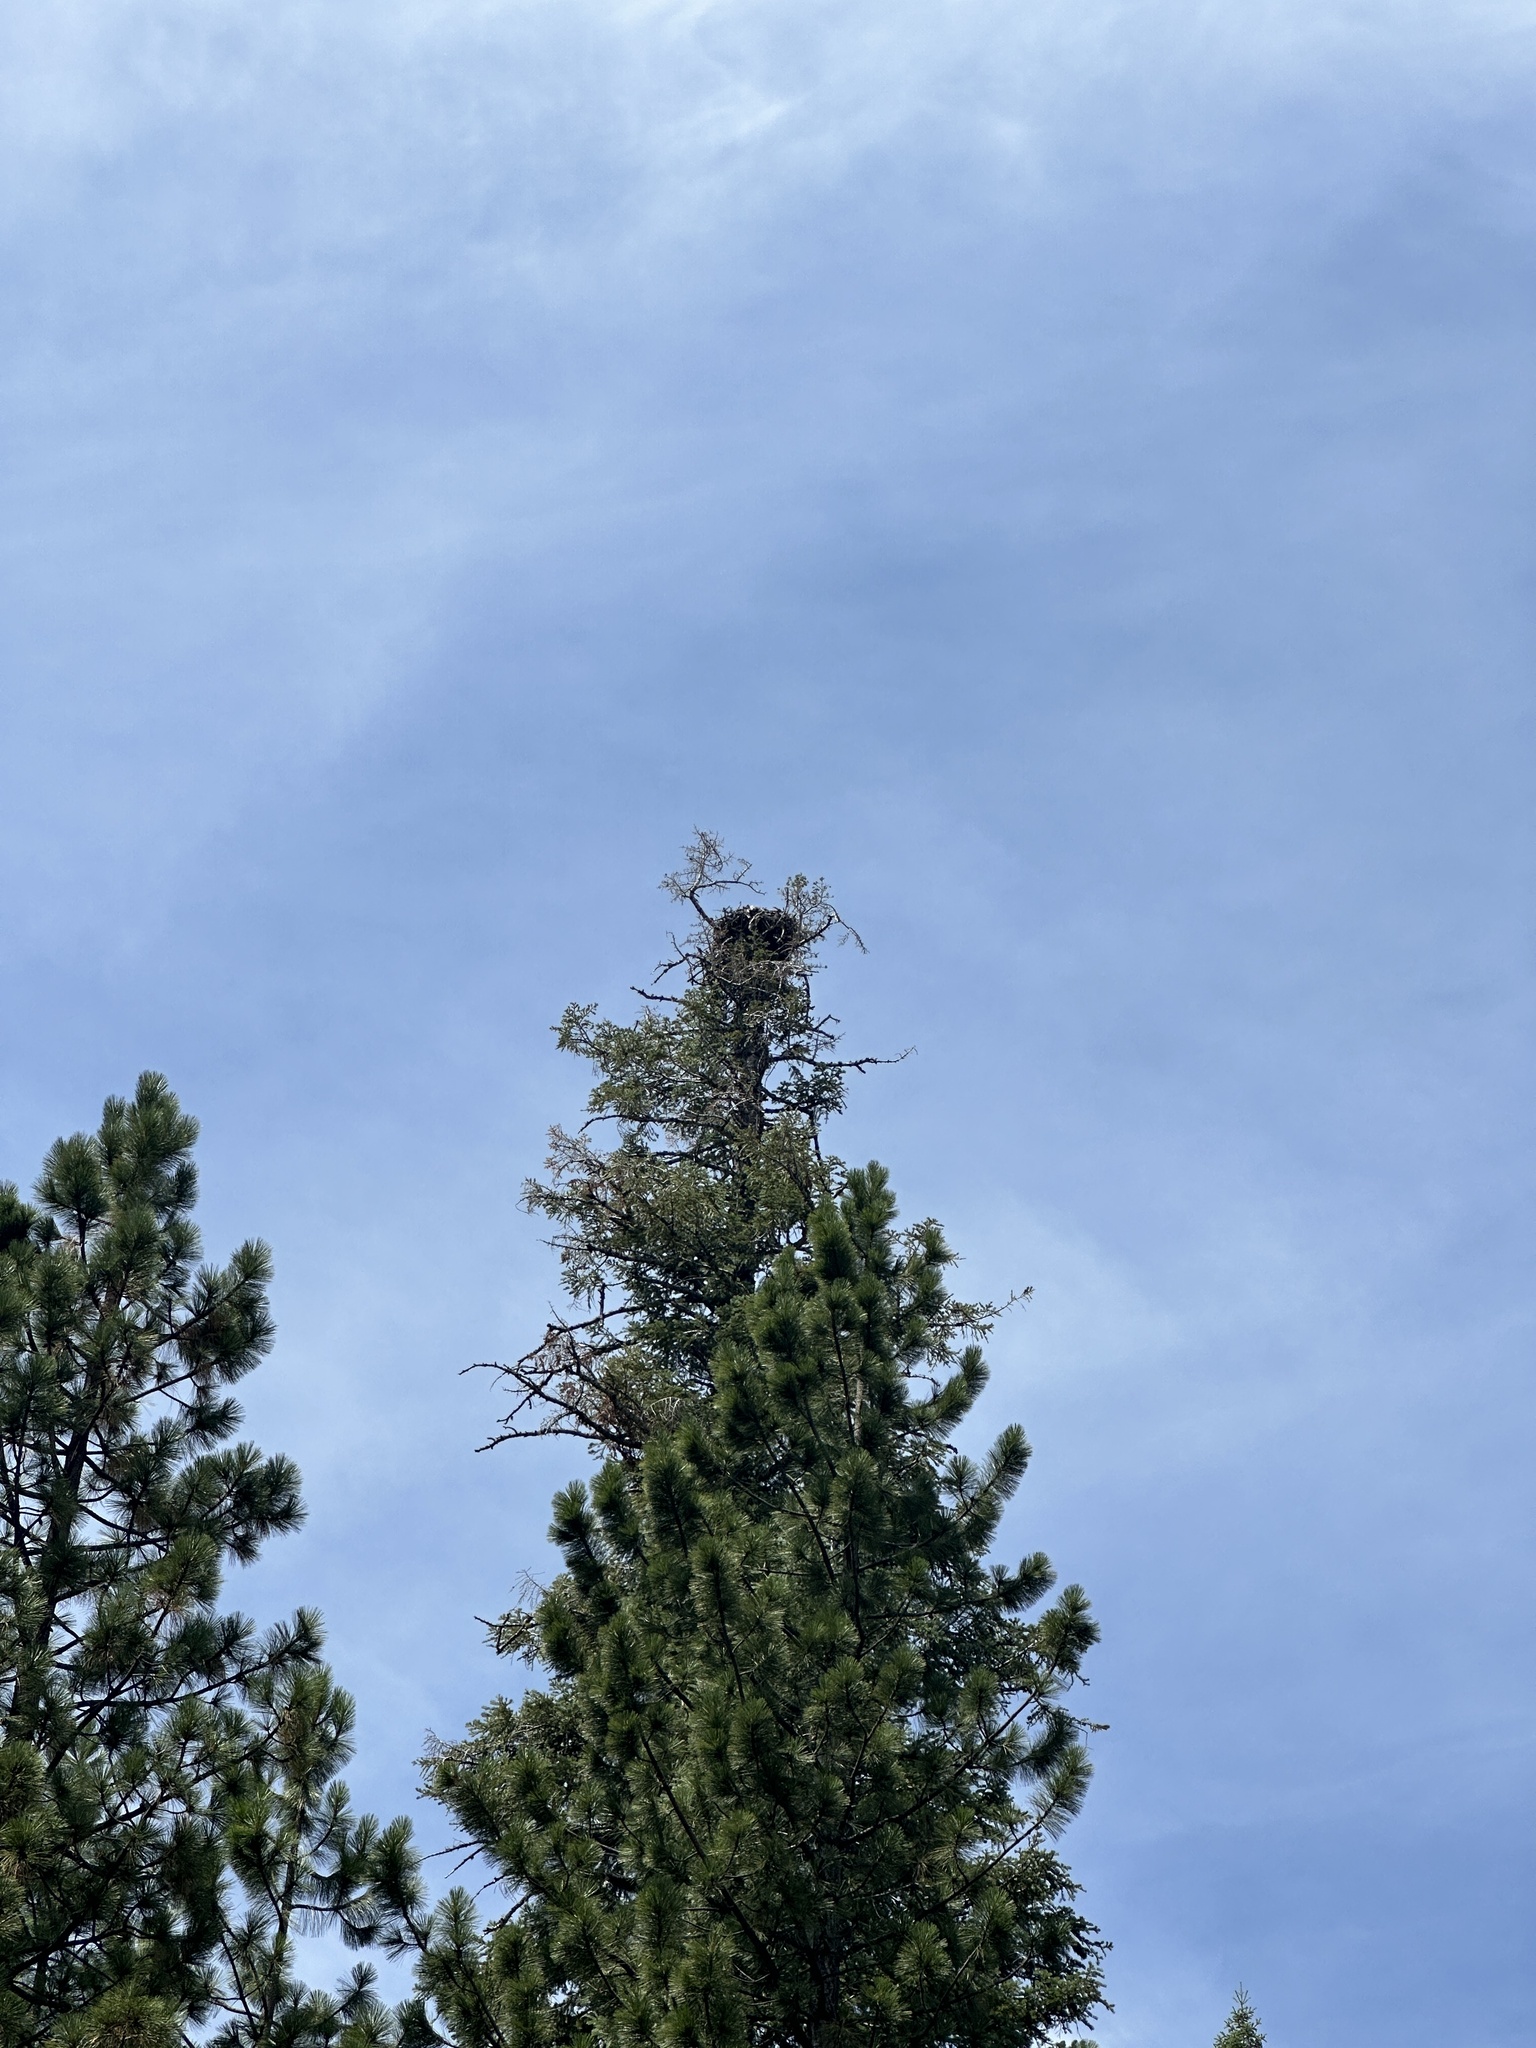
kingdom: Animalia
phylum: Chordata
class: Aves
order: Accipitriformes
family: Pandionidae
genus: Pandion
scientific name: Pandion haliaetus
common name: Osprey
